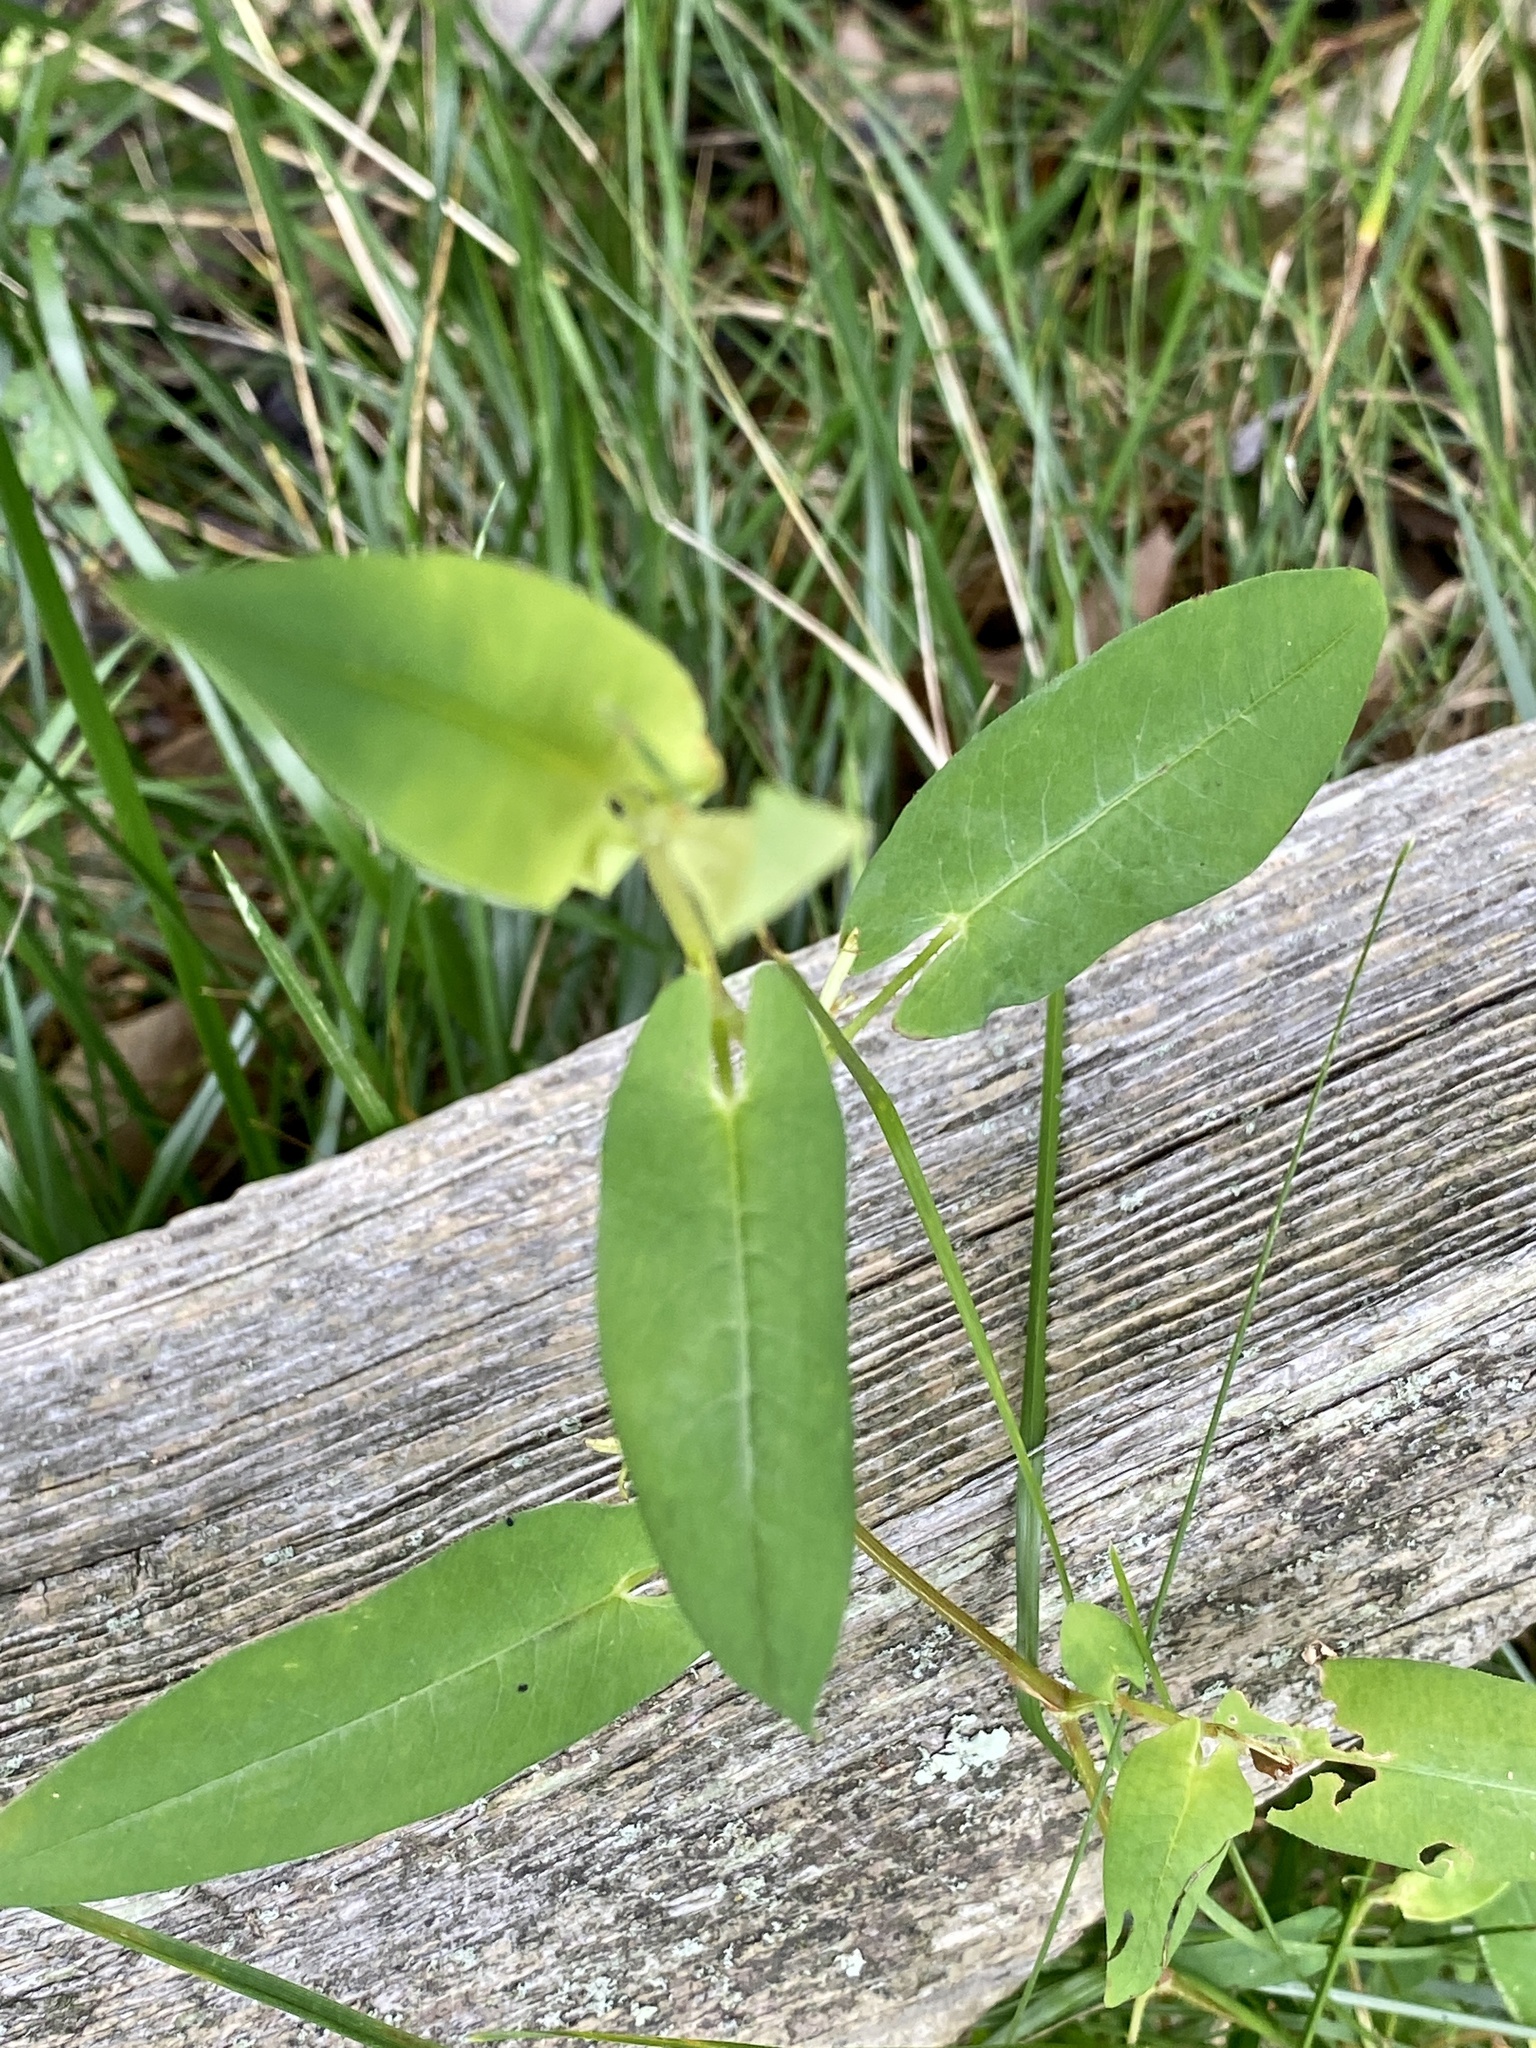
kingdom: Plantae
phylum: Tracheophyta
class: Magnoliopsida
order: Caryophyllales
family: Polygonaceae
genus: Persicaria
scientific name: Persicaria sagittata
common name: American tearthumb
